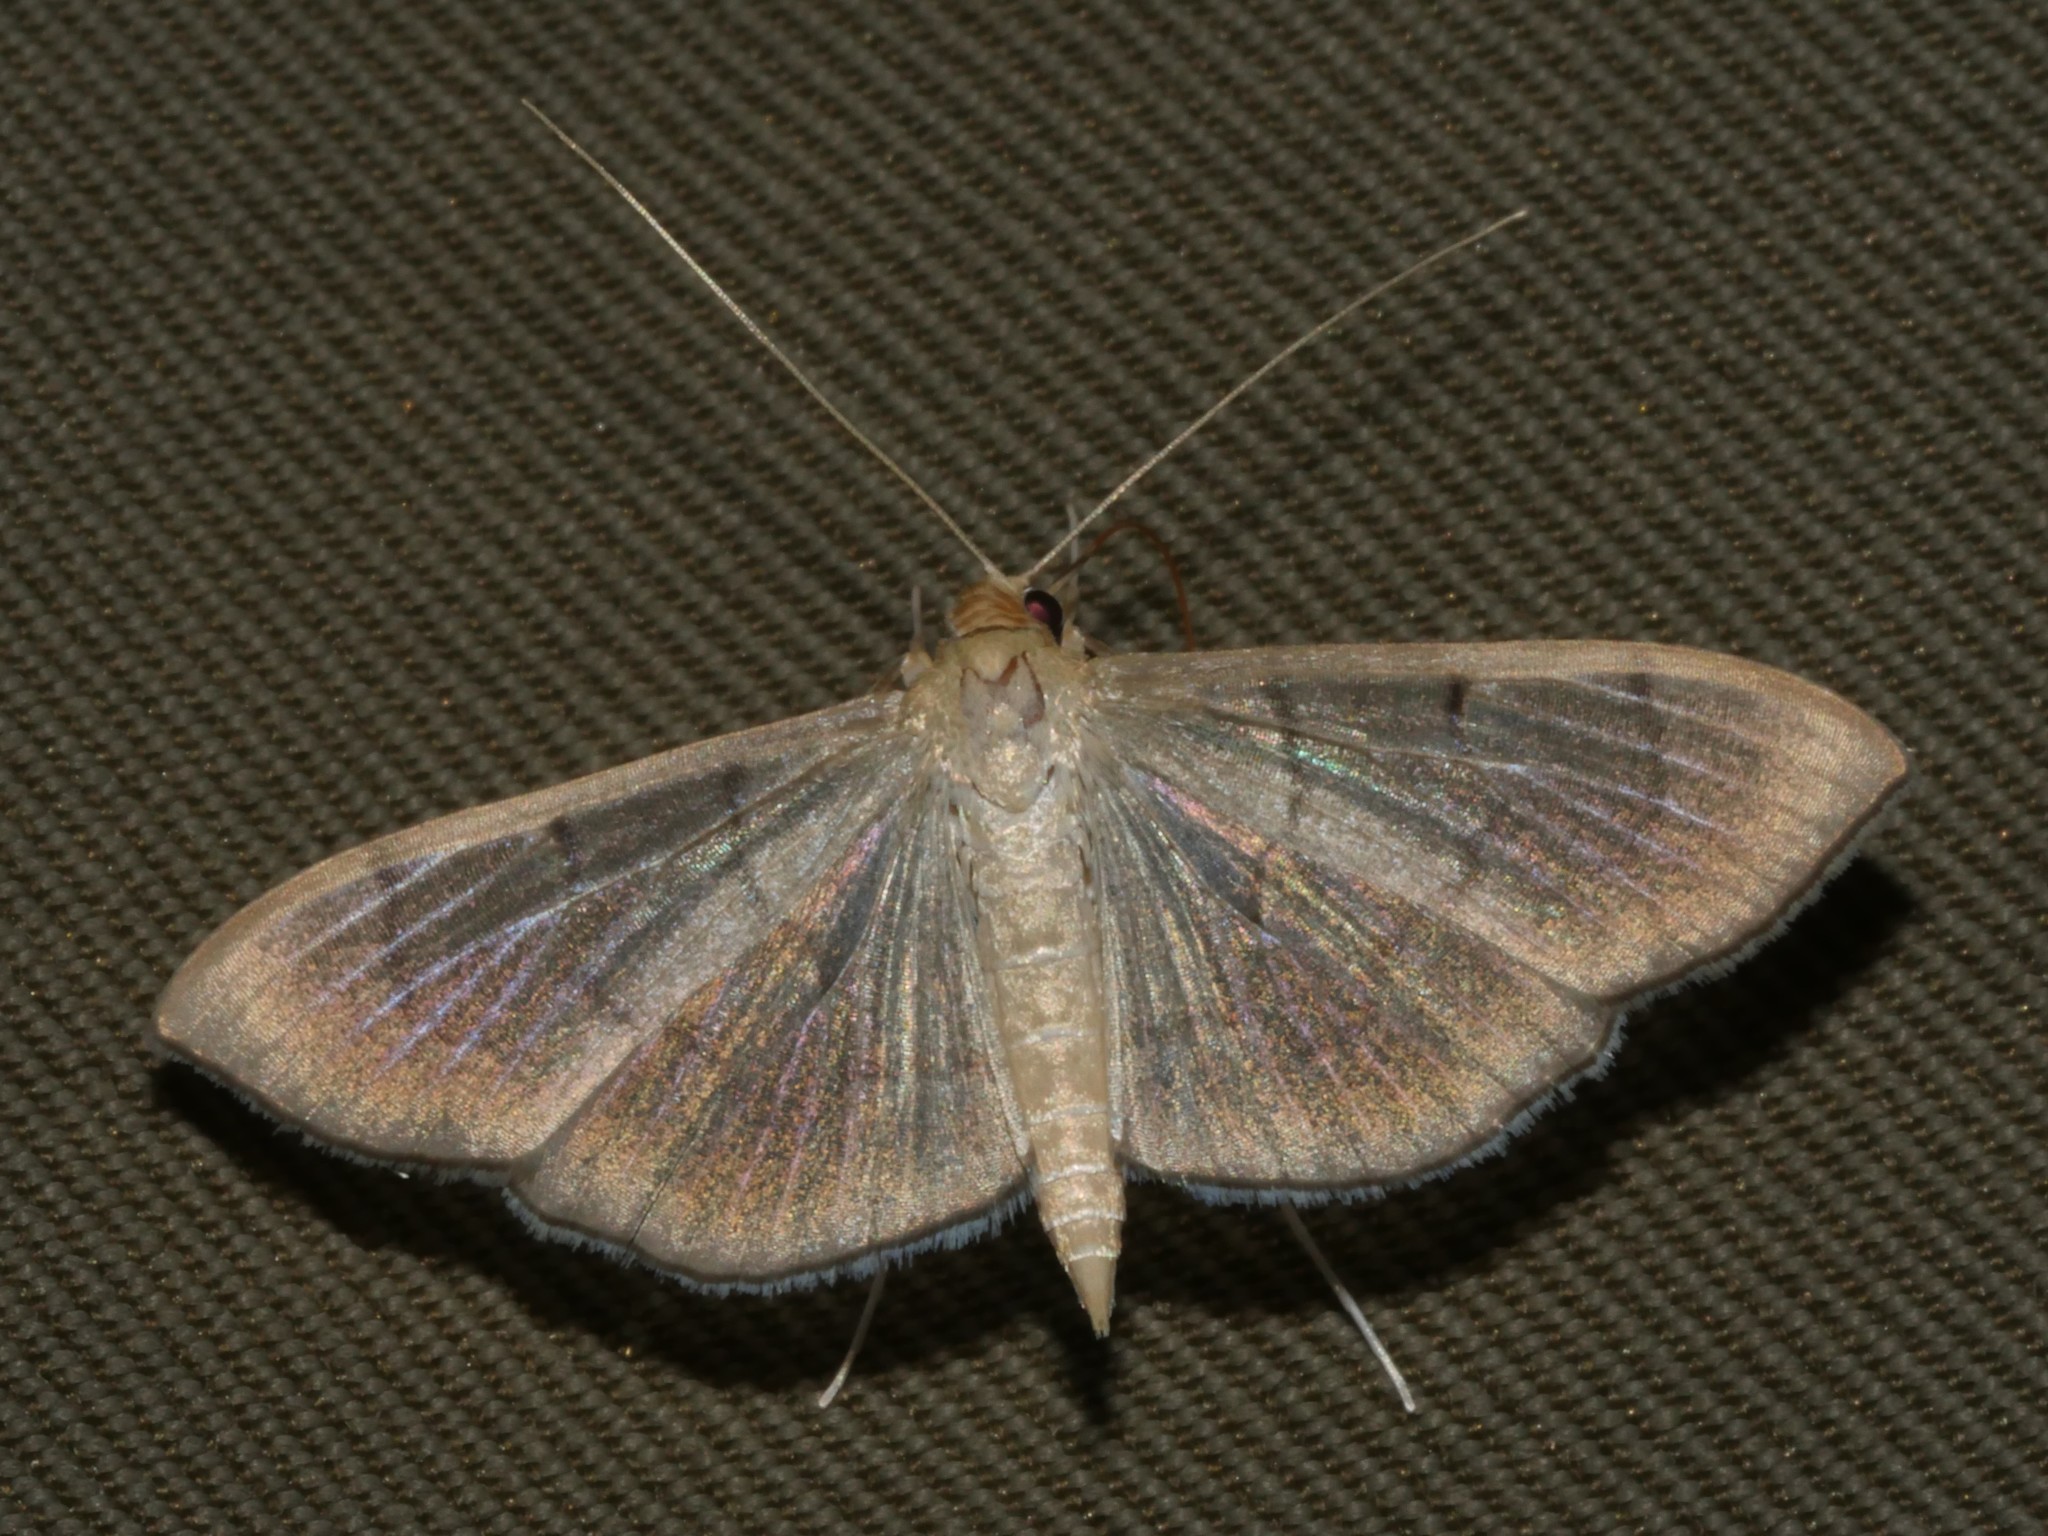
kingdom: Animalia
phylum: Arthropoda
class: Insecta
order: Lepidoptera
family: Crambidae
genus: Lamprophaia
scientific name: Lamprophaia ablactalis
